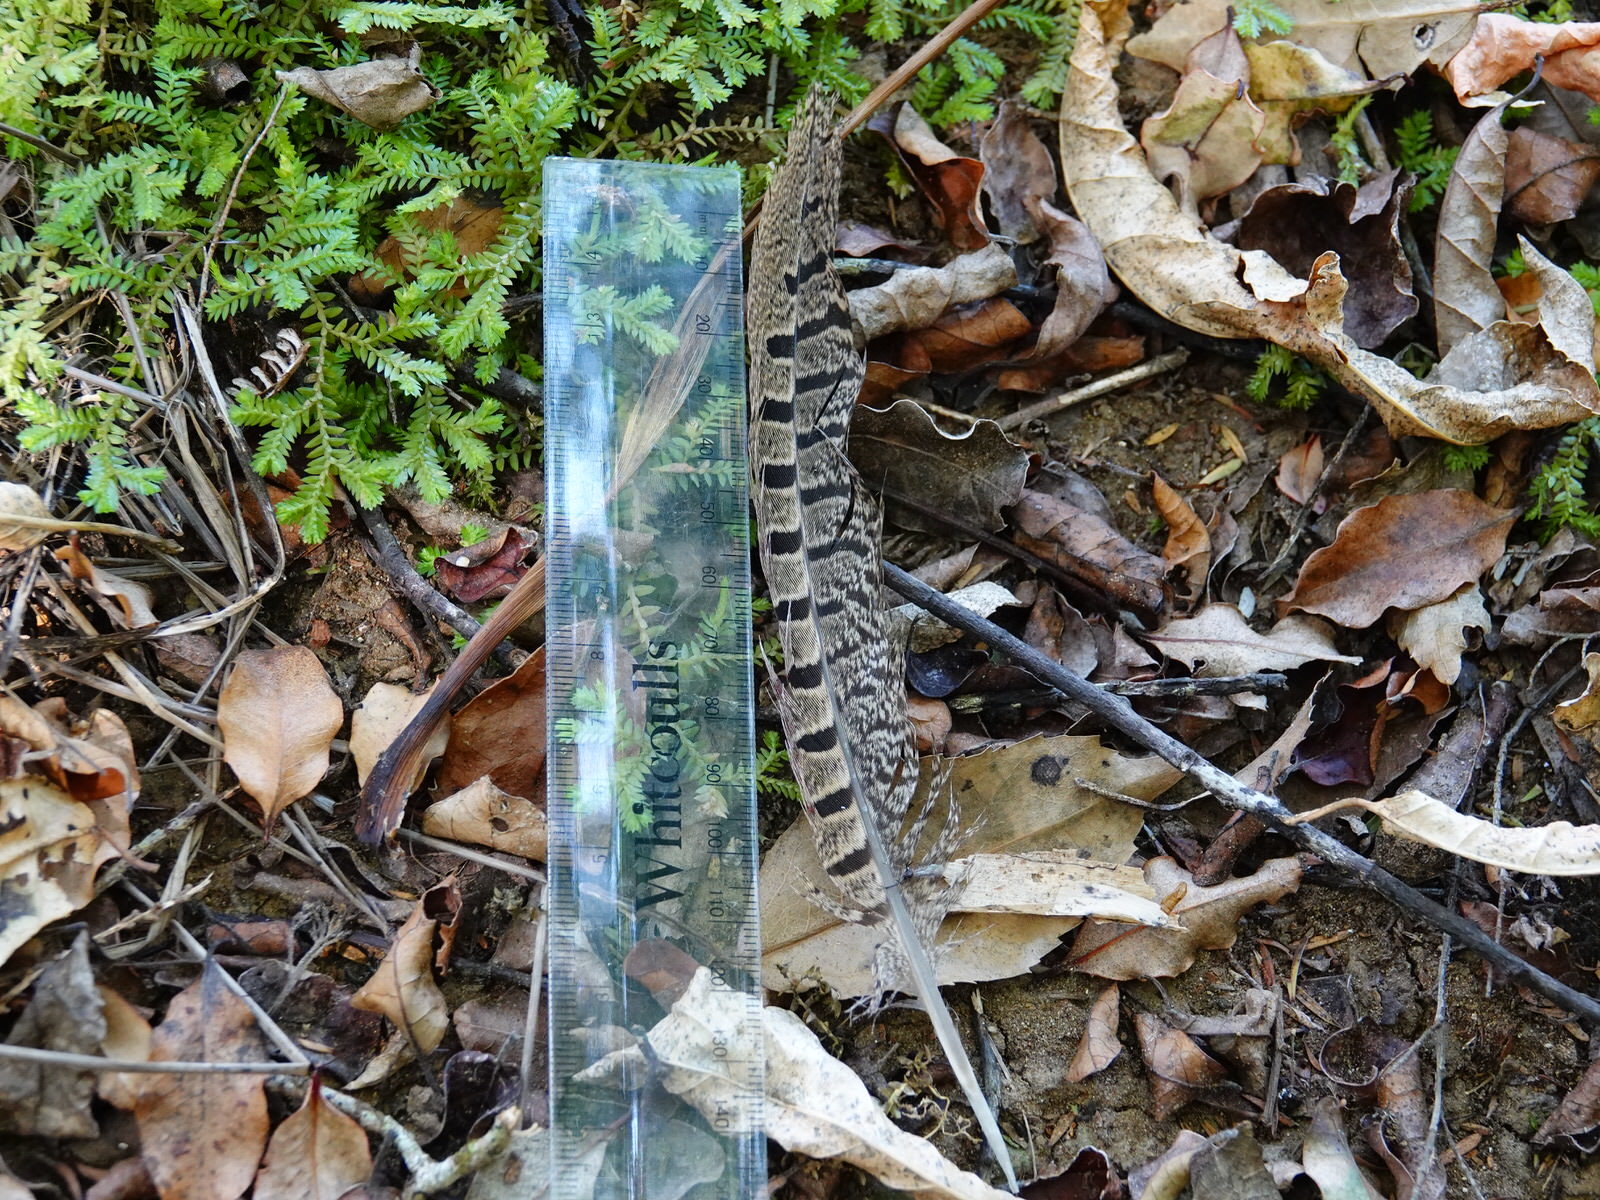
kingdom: Animalia
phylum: Chordata
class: Aves
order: Galliformes
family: Phasianidae
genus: Phasianus
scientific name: Phasianus colchicus
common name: Common pheasant
